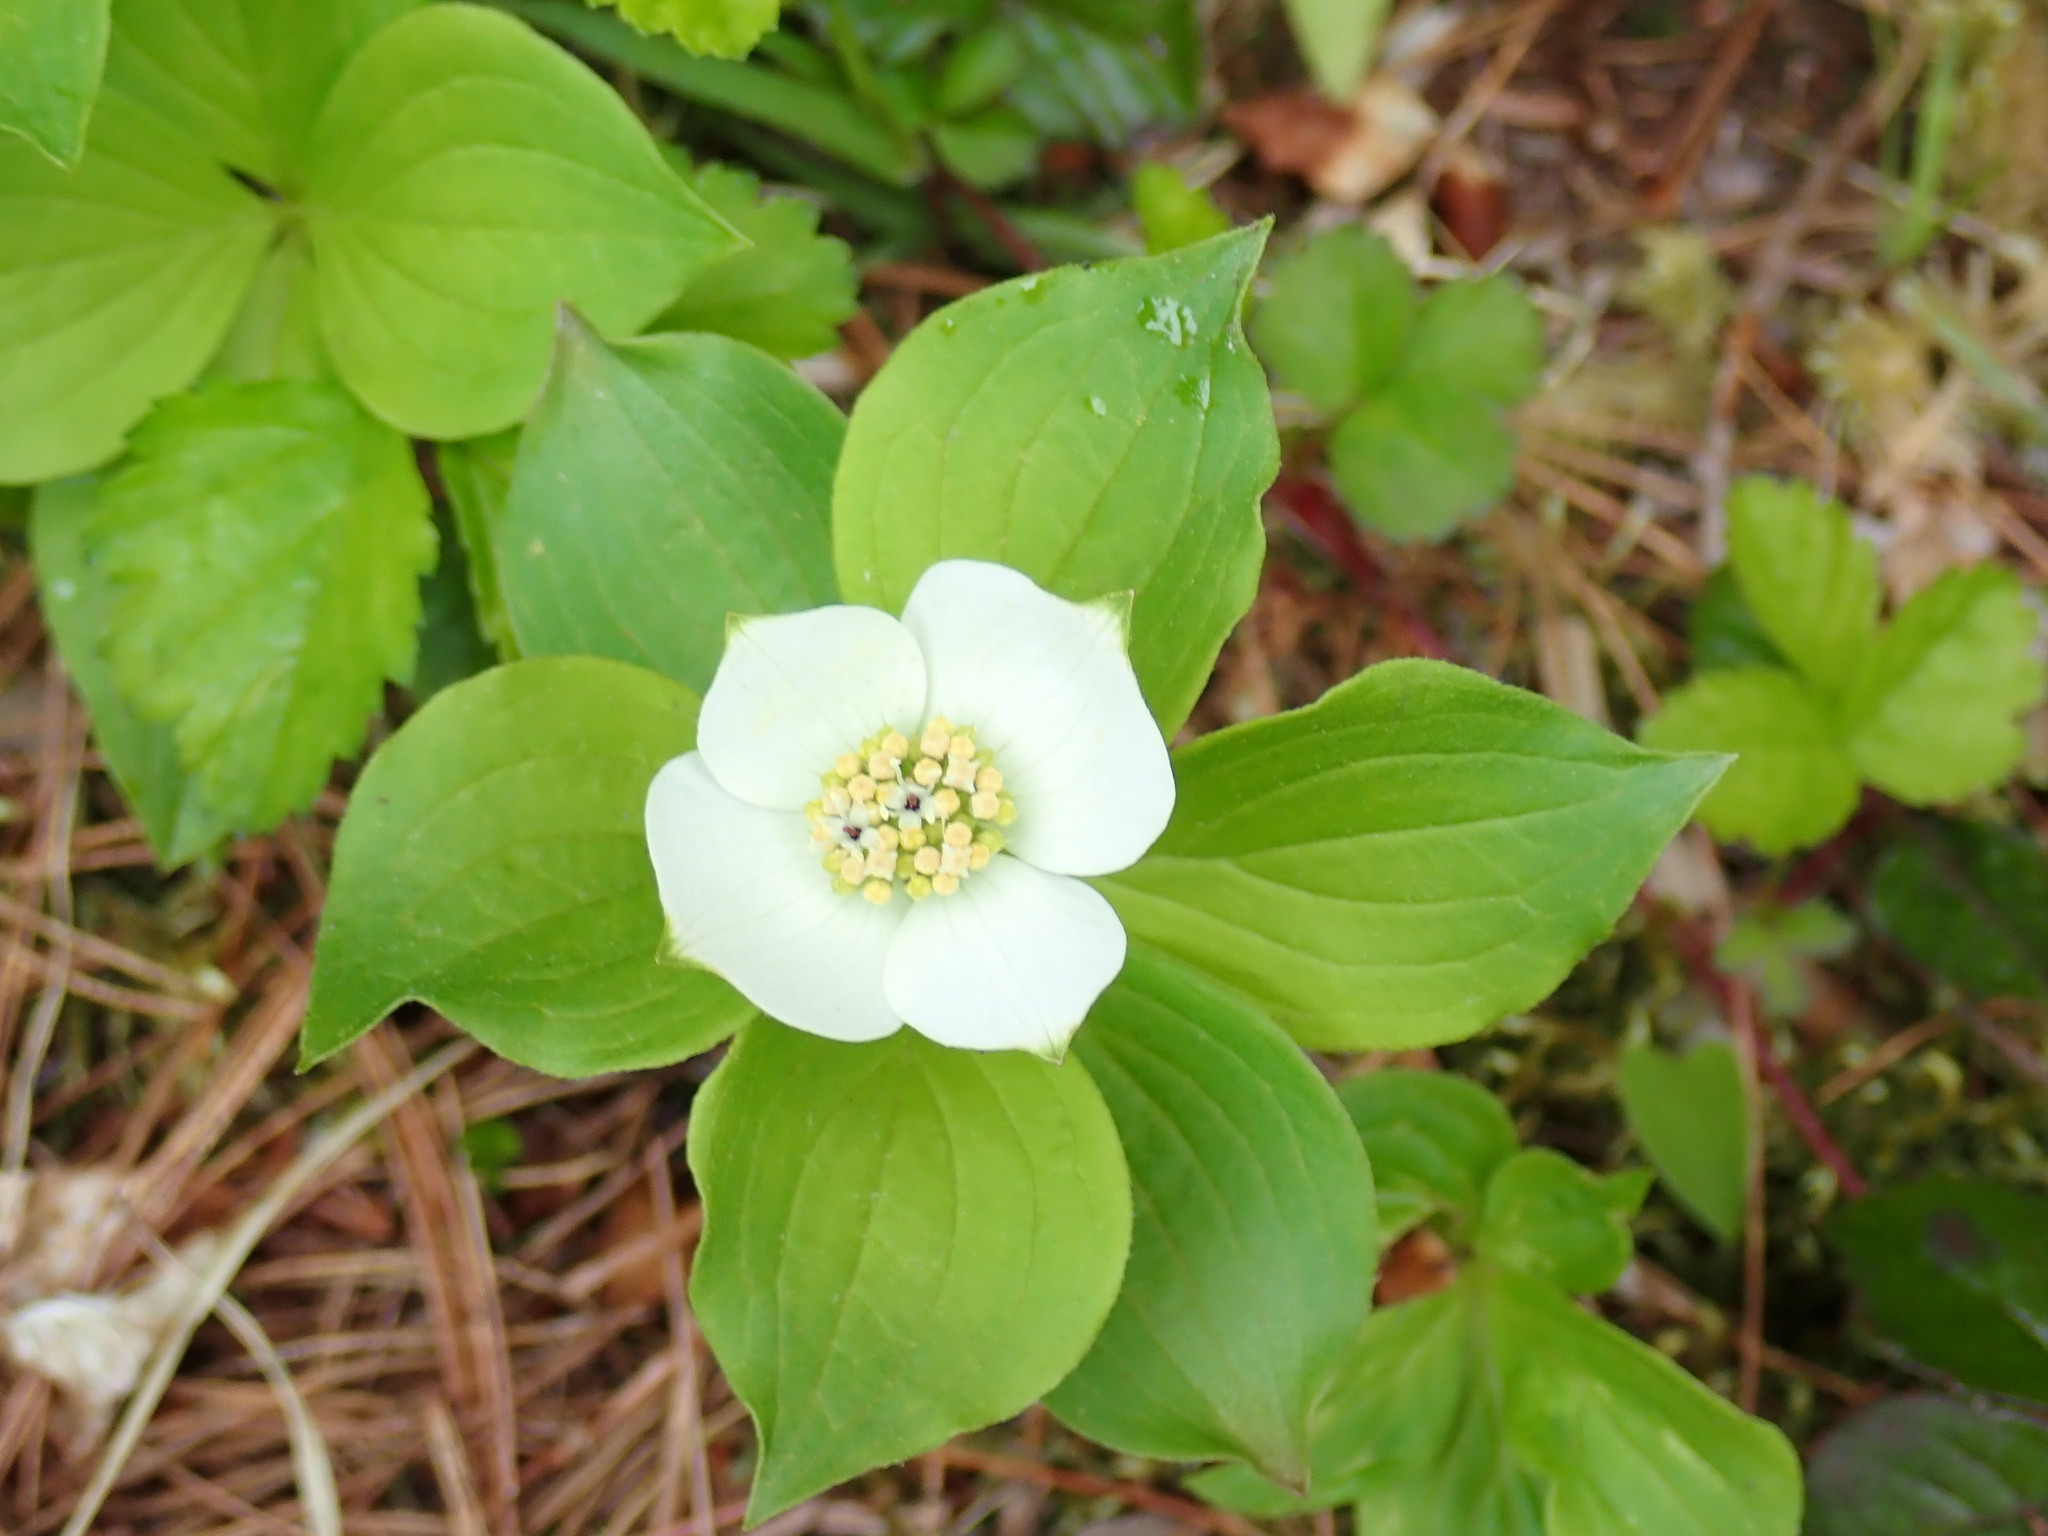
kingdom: Plantae
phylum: Tracheophyta
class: Magnoliopsida
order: Cornales
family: Cornaceae
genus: Cornus
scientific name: Cornus canadensis
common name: Creeping dogwood
